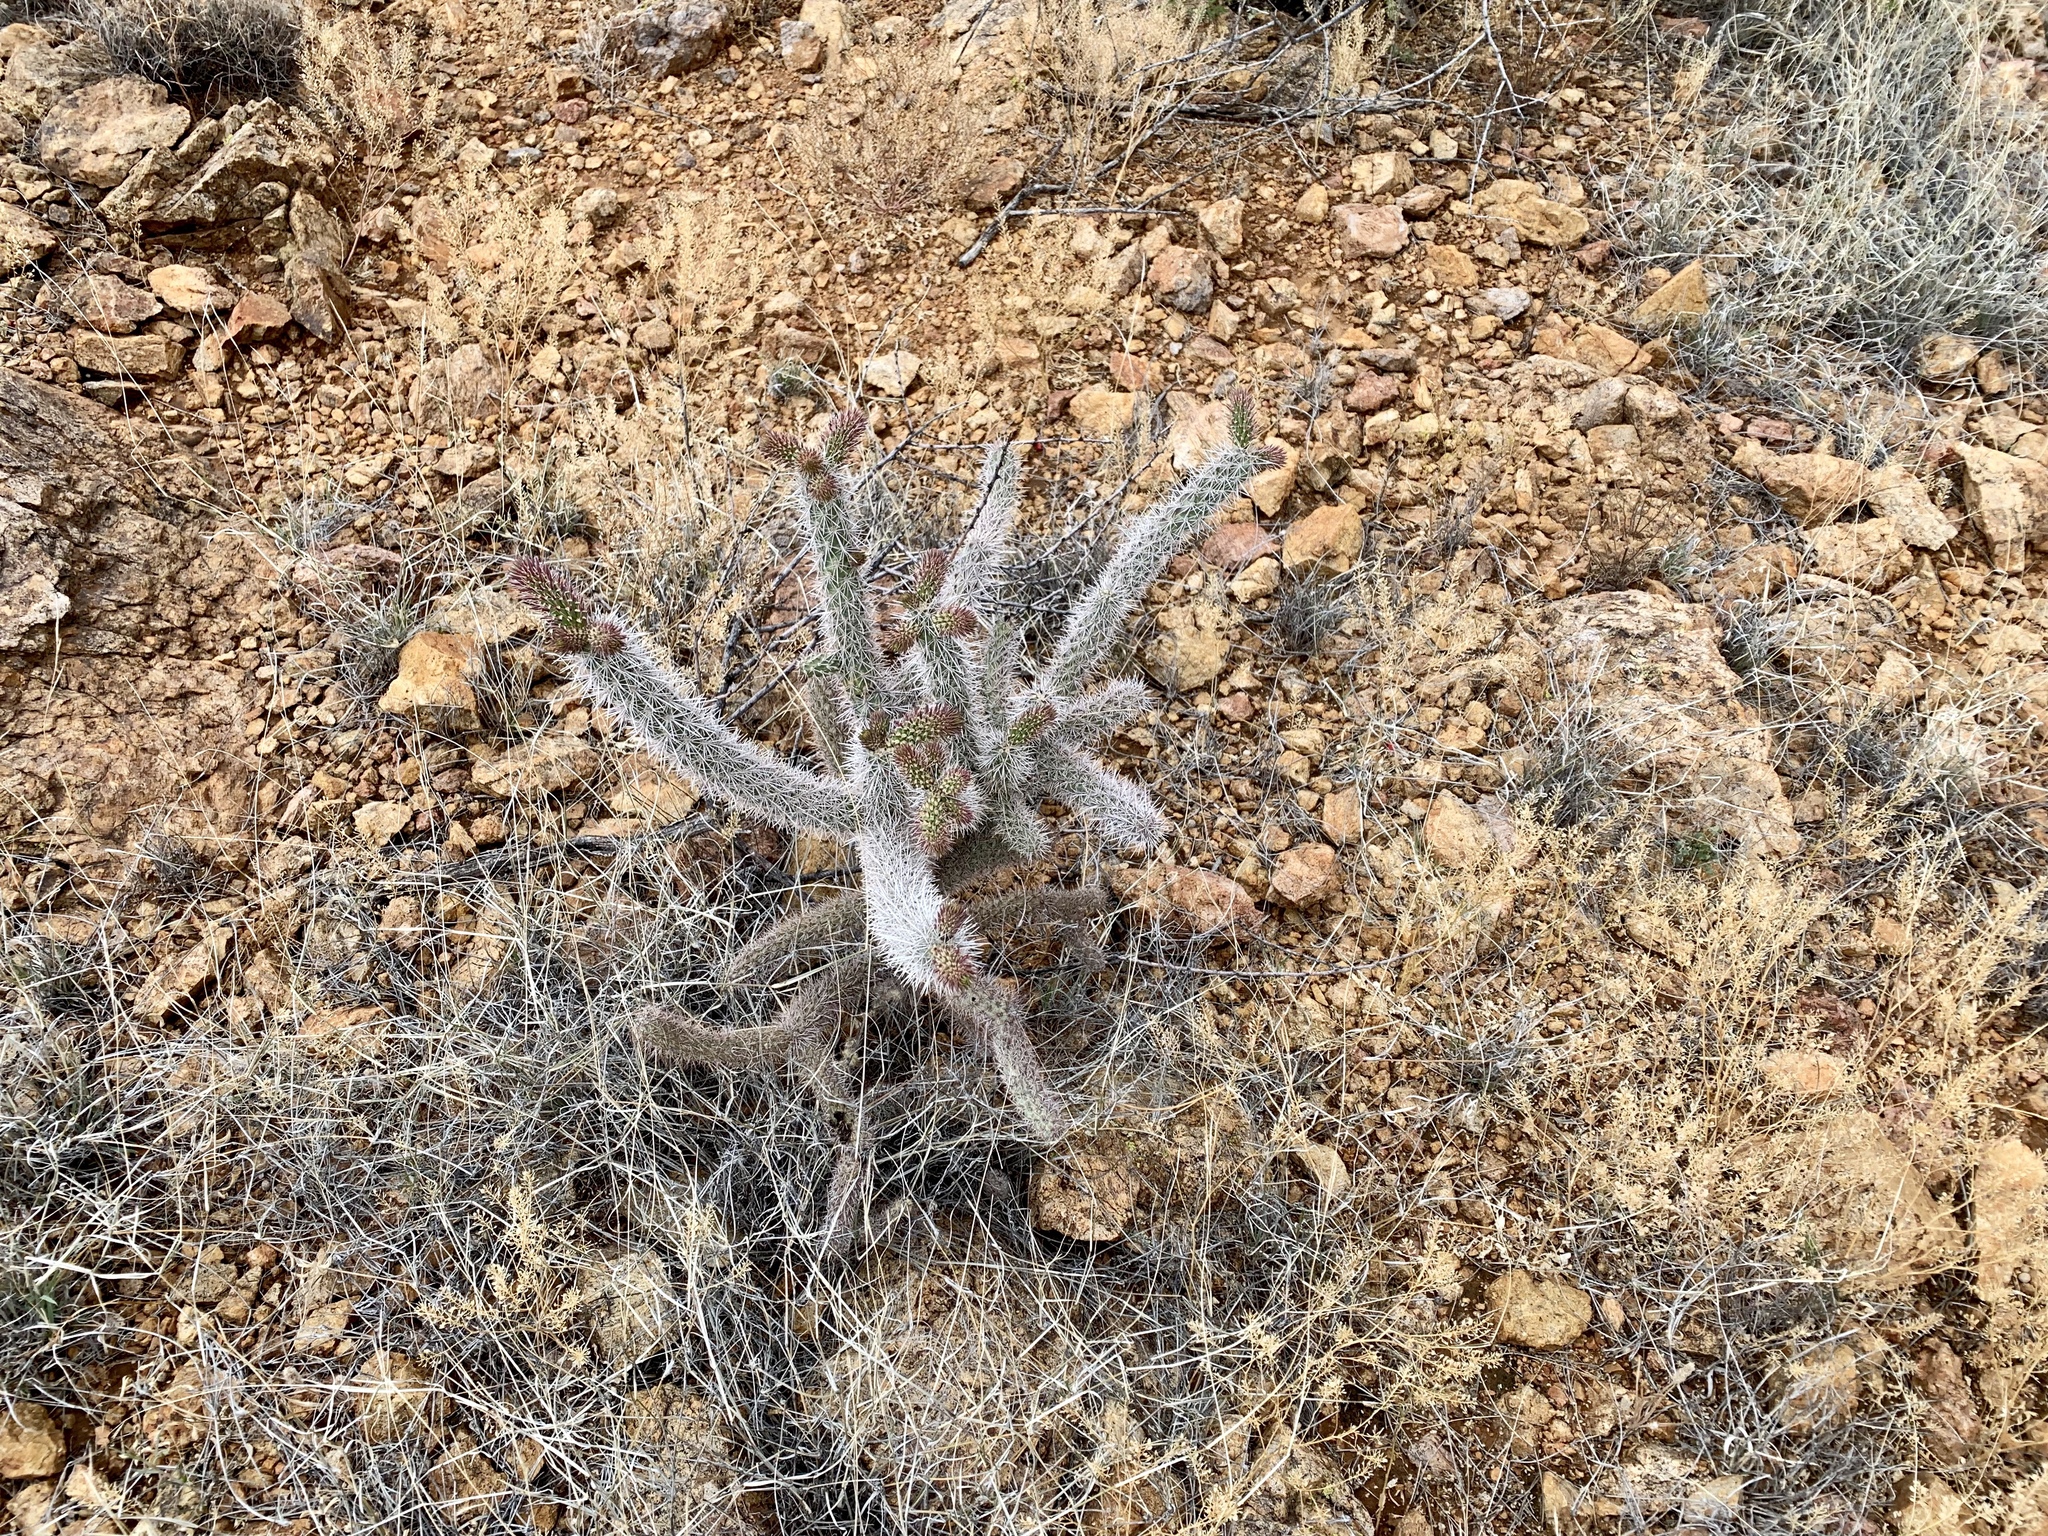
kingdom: Plantae
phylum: Tracheophyta
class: Magnoliopsida
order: Caryophyllales
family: Cactaceae
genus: Cylindropuntia
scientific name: Cylindropuntia imbricata
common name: Candelabrum cactus
